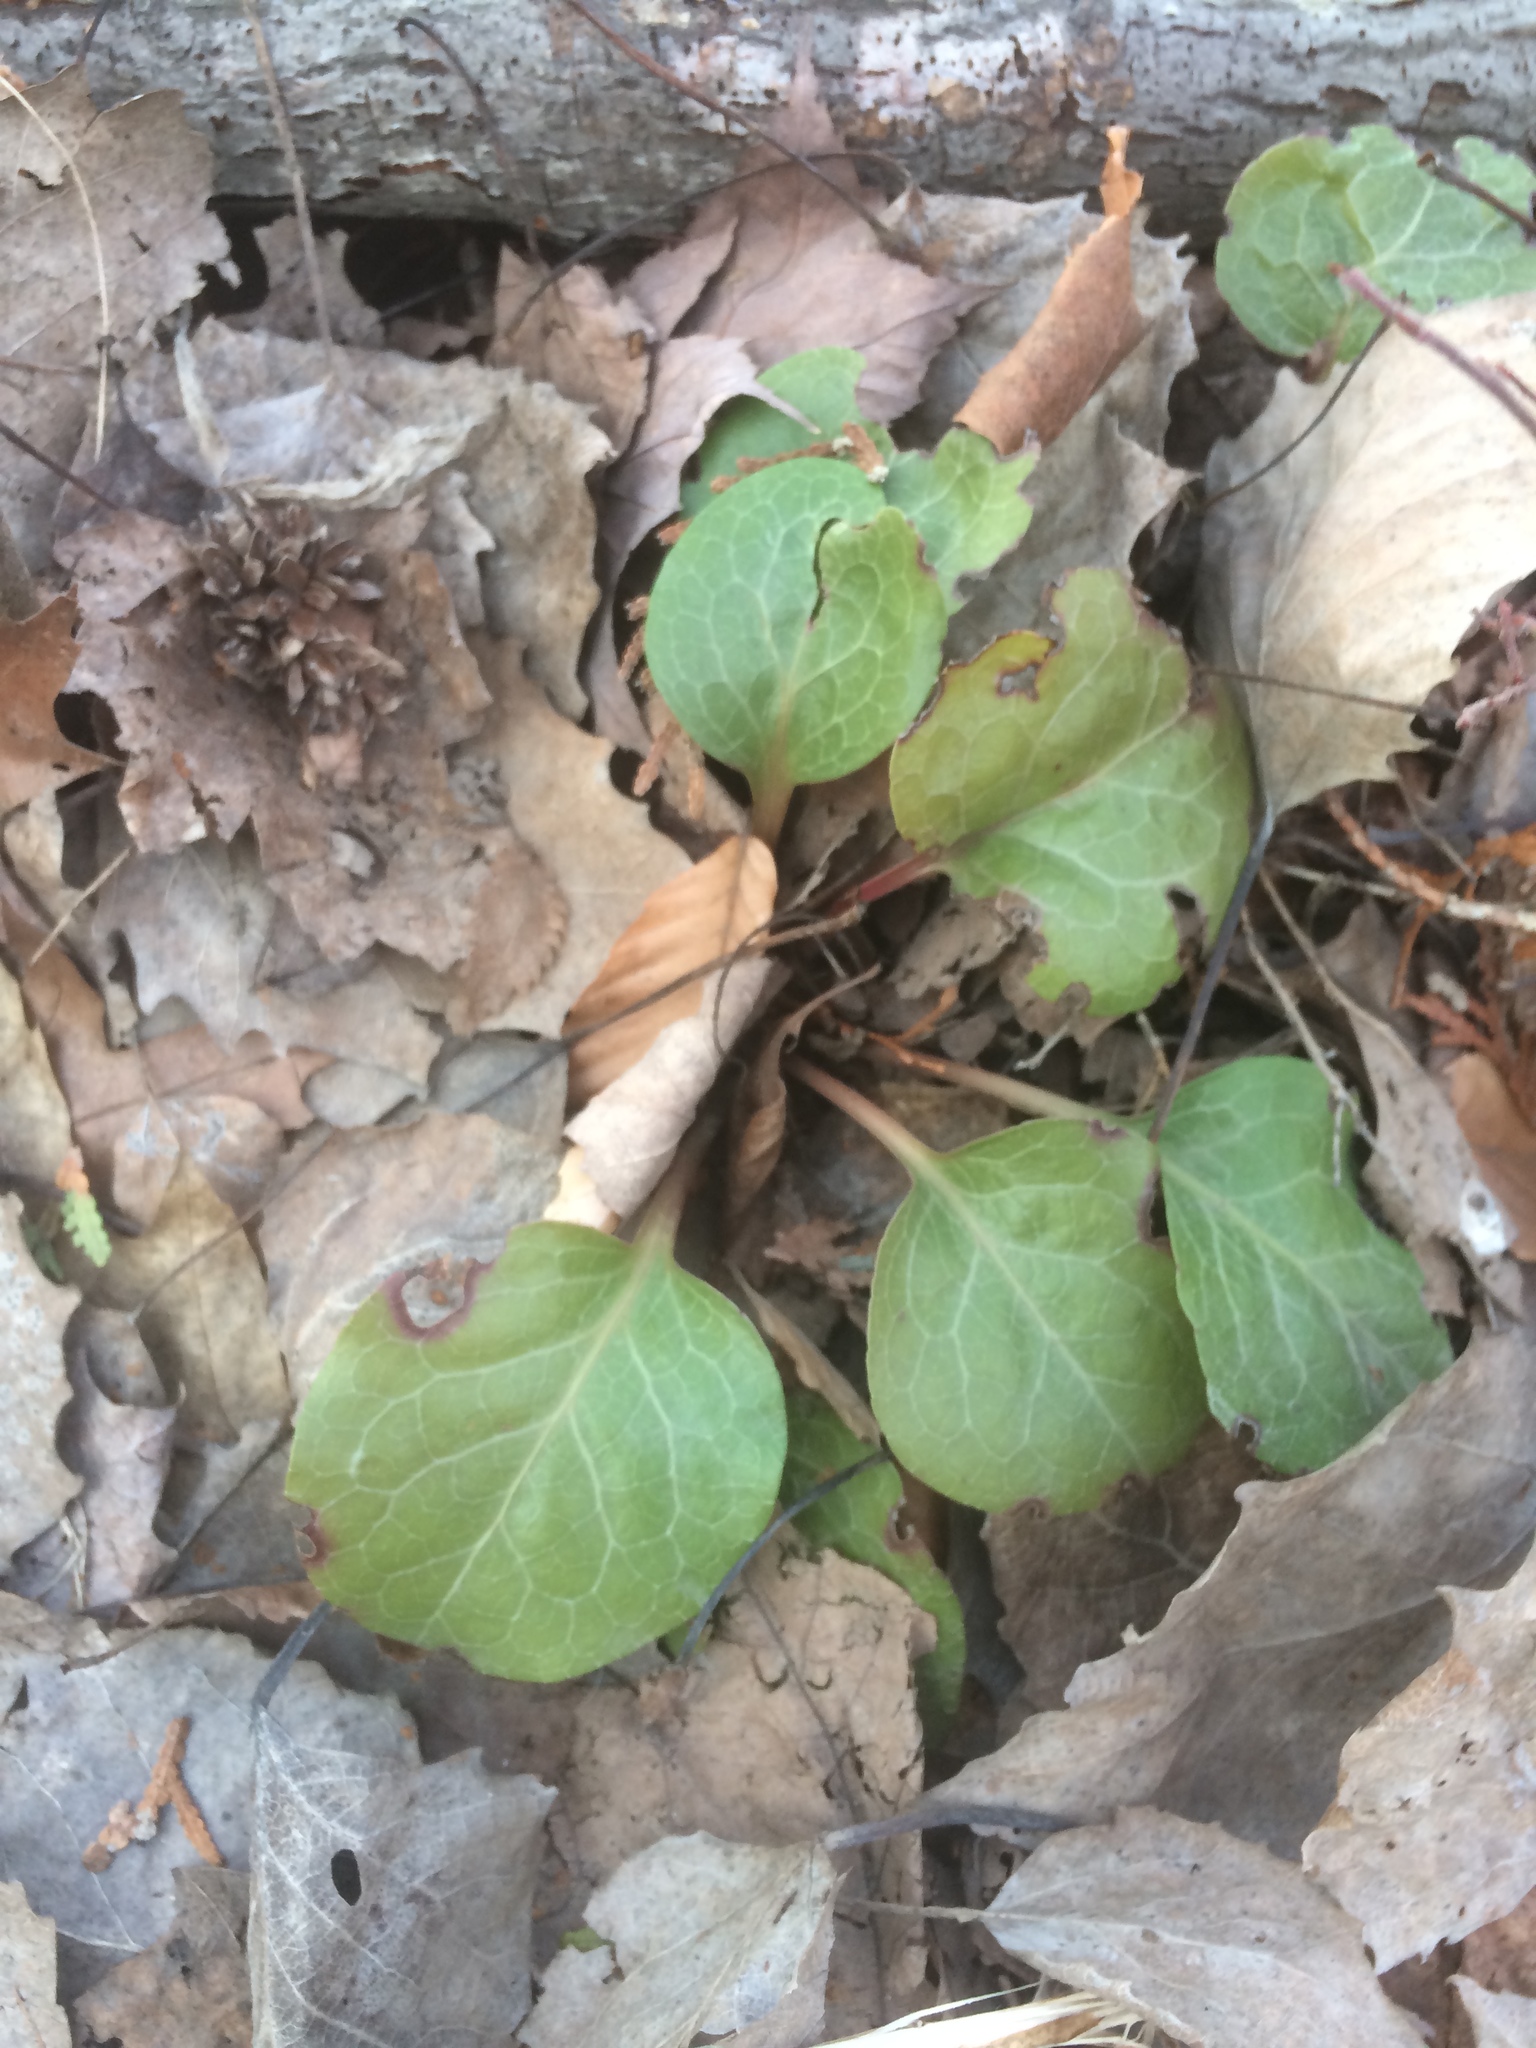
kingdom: Plantae
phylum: Tracheophyta
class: Magnoliopsida
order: Ericales
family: Ericaceae
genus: Pyrola
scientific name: Pyrola americana
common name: American wintergreen
